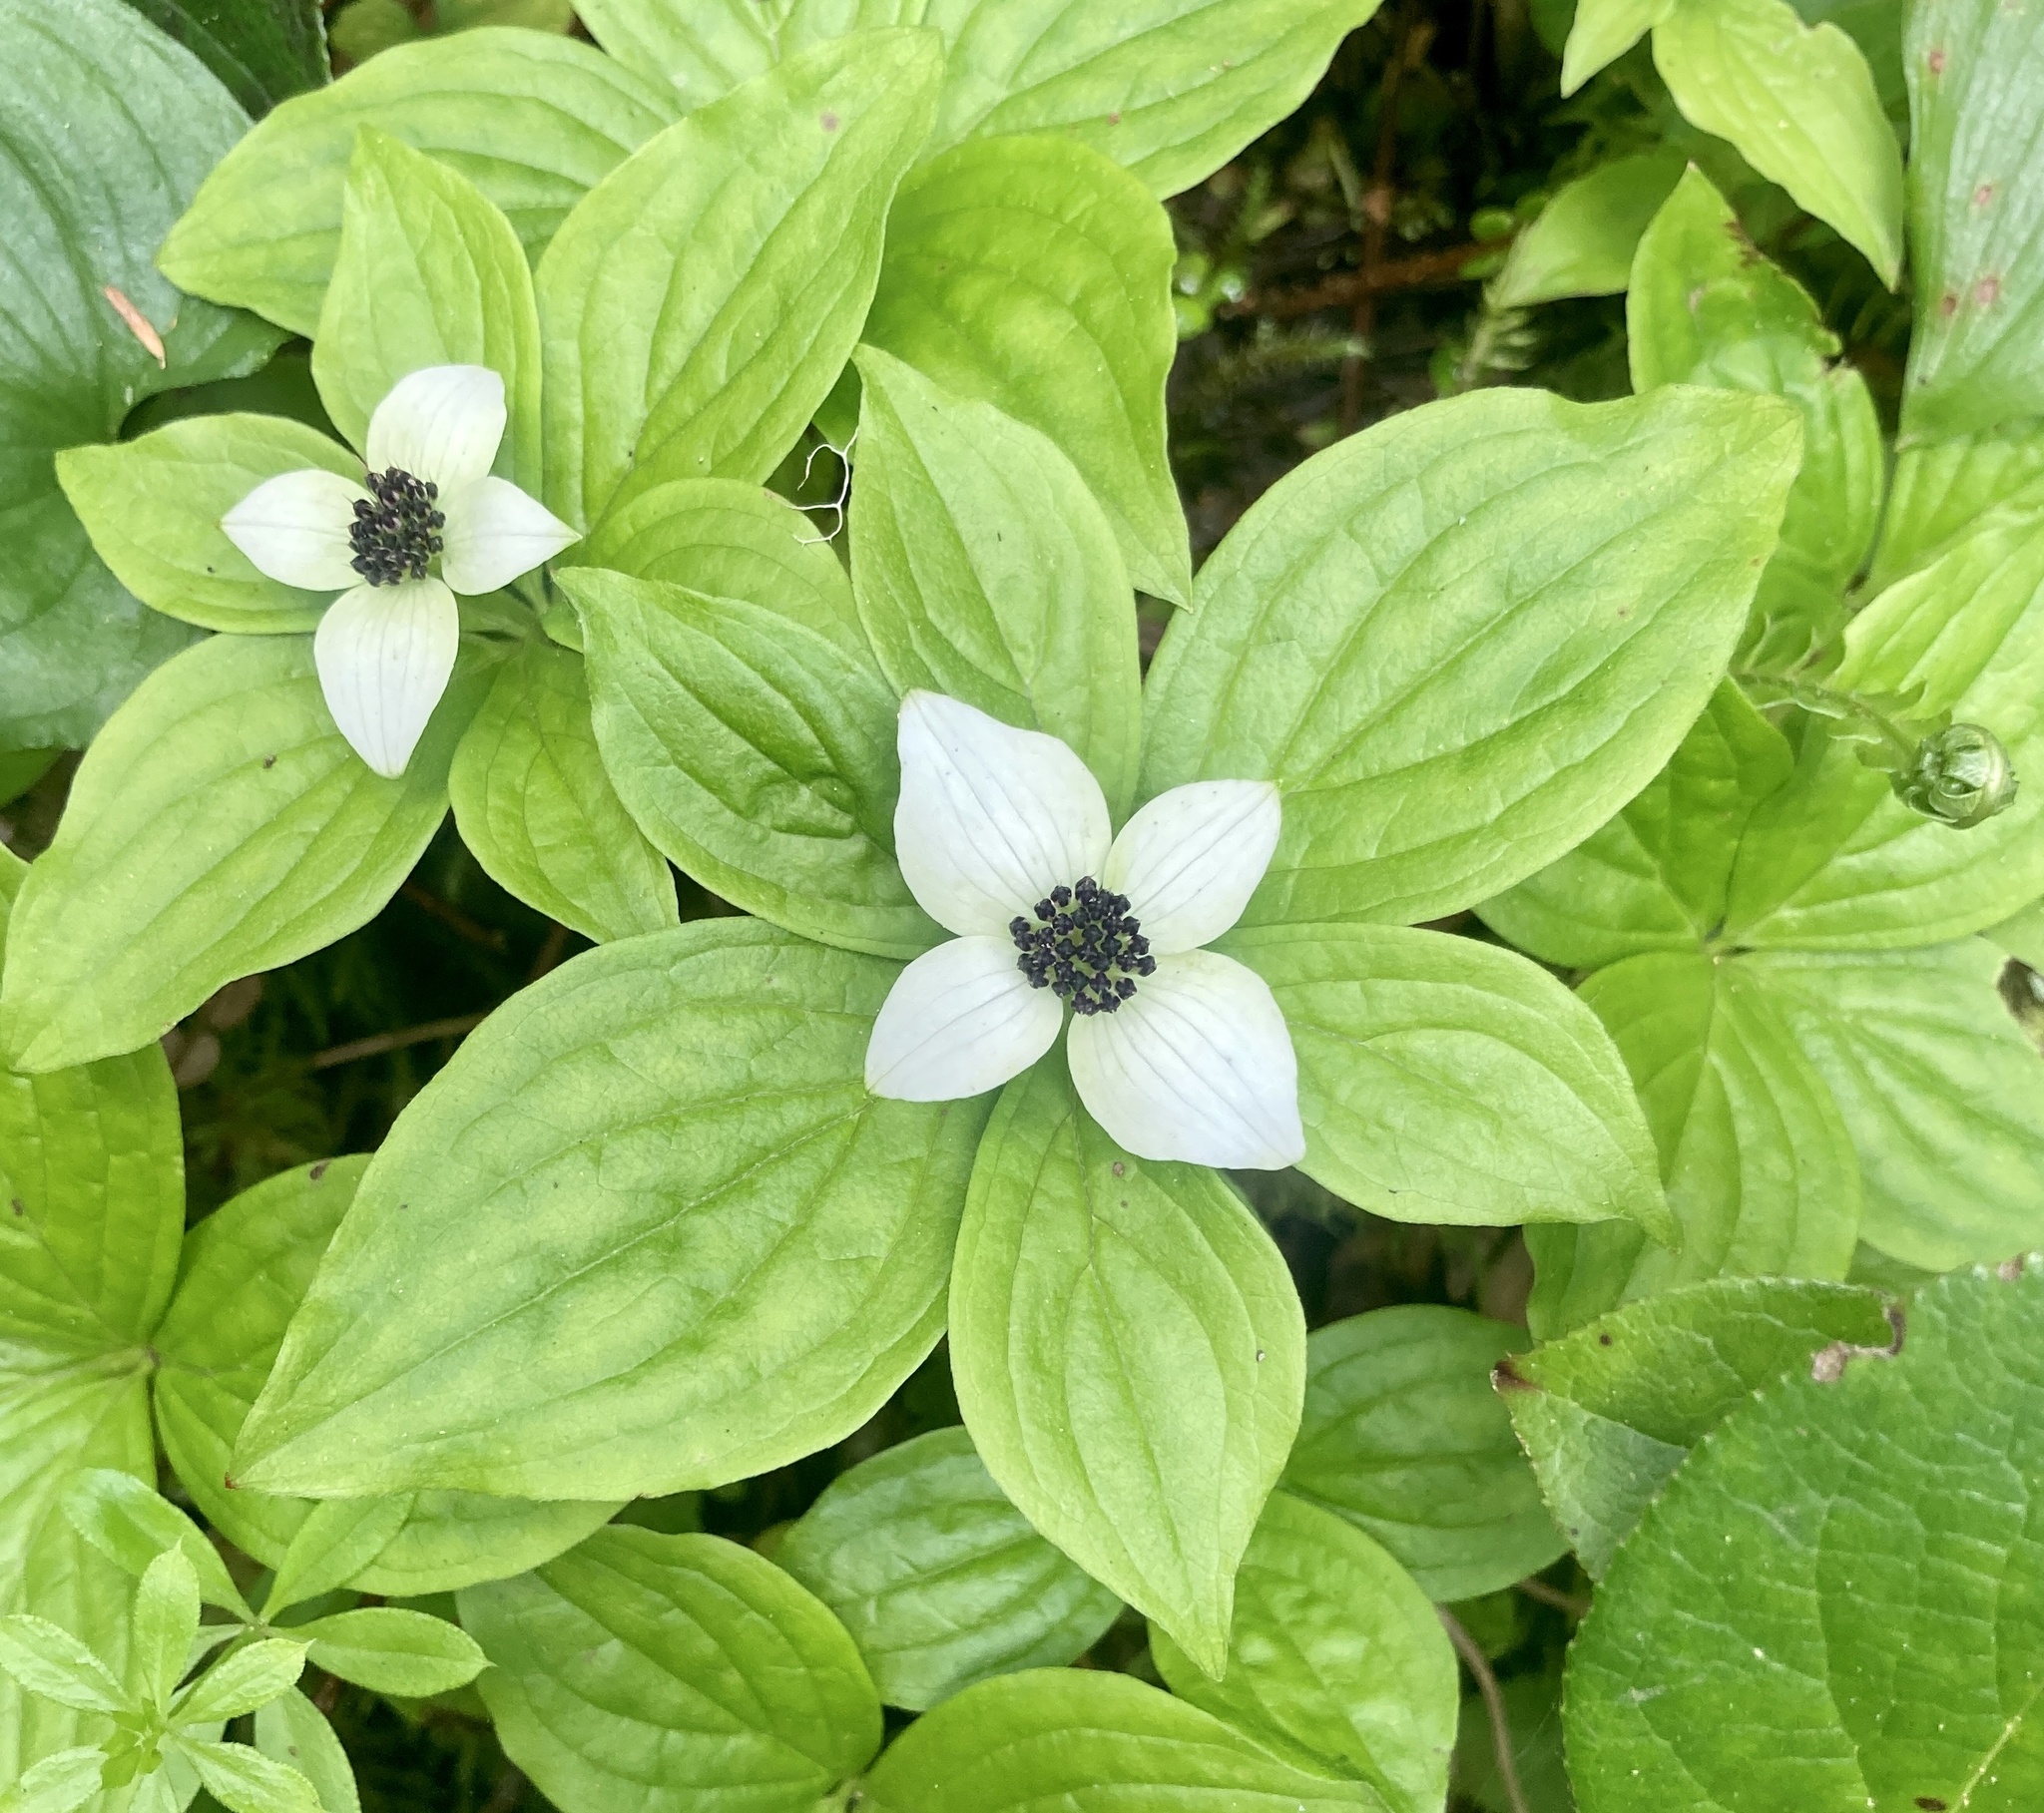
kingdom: Plantae
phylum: Tracheophyta
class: Magnoliopsida
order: Cornales
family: Cornaceae
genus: Cornus
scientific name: Cornus unalaschkensis
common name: Alaska bunchberry
